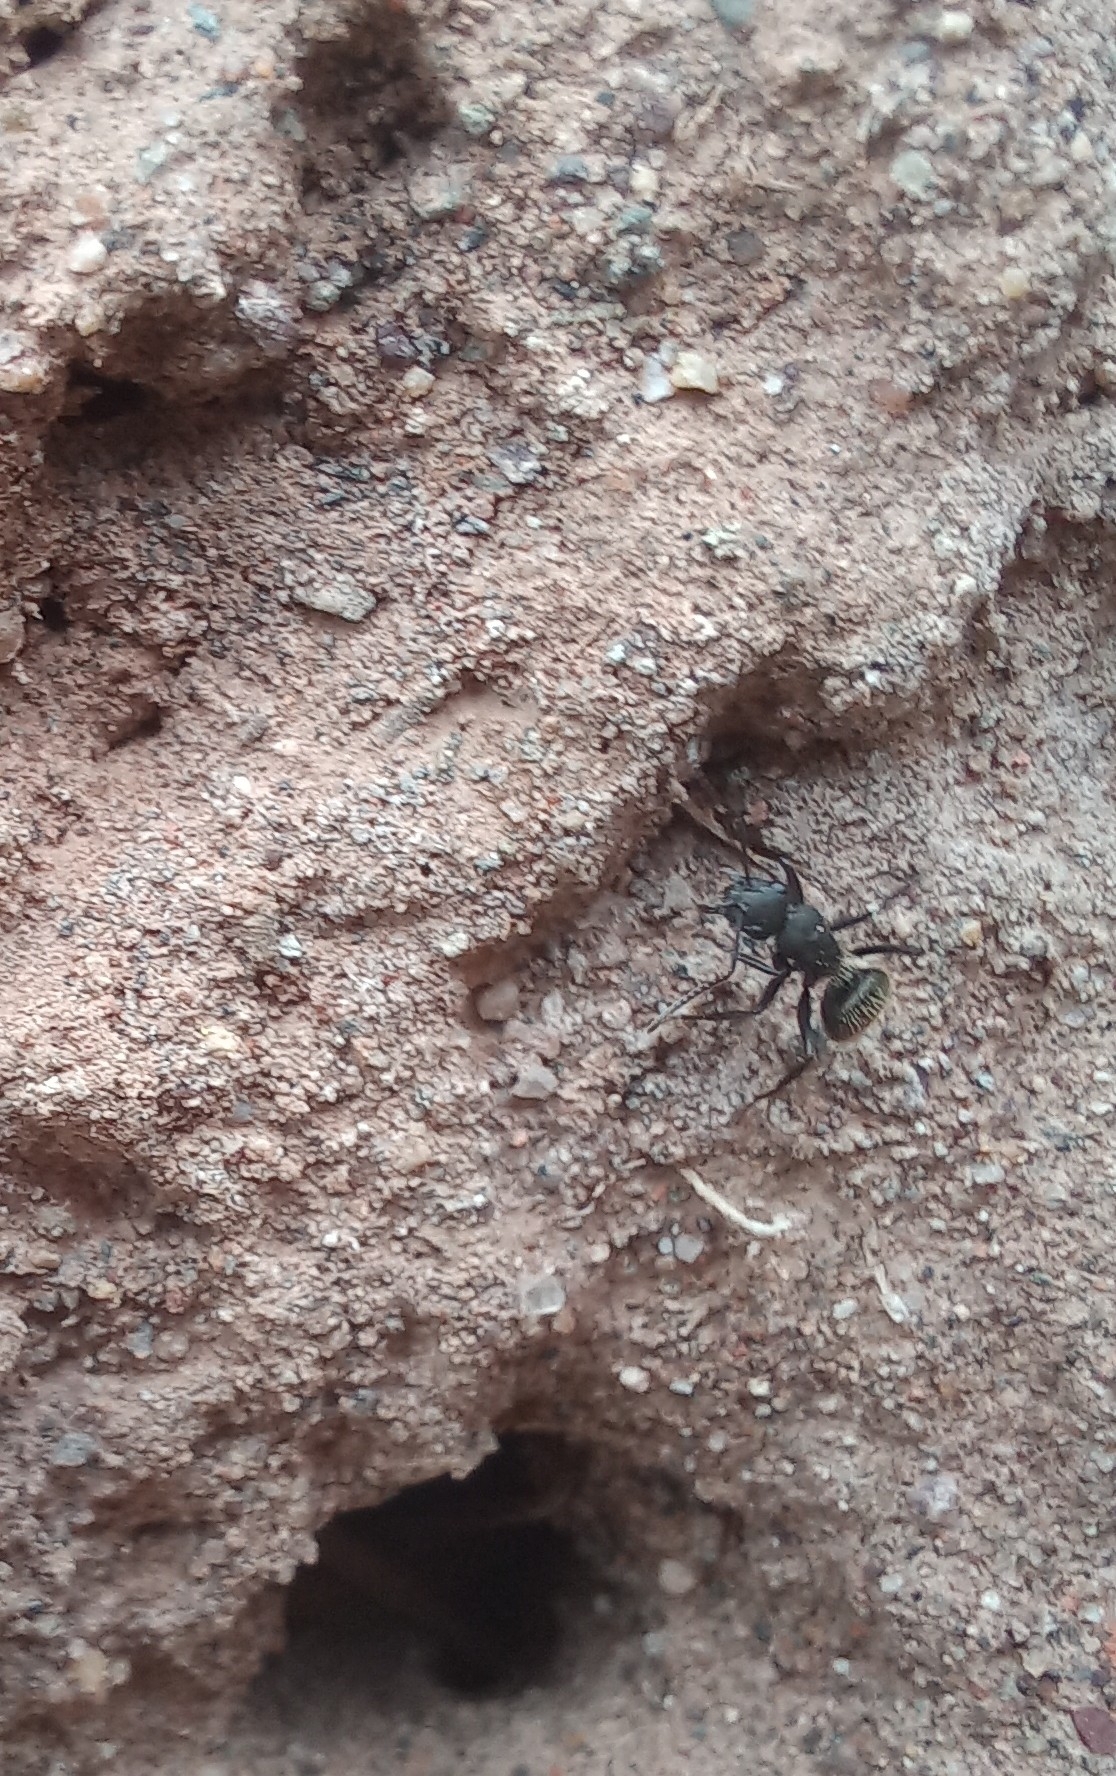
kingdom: Animalia
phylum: Arthropoda
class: Insecta
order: Hymenoptera
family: Formicidae
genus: Camponotus
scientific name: Camponotus mus
